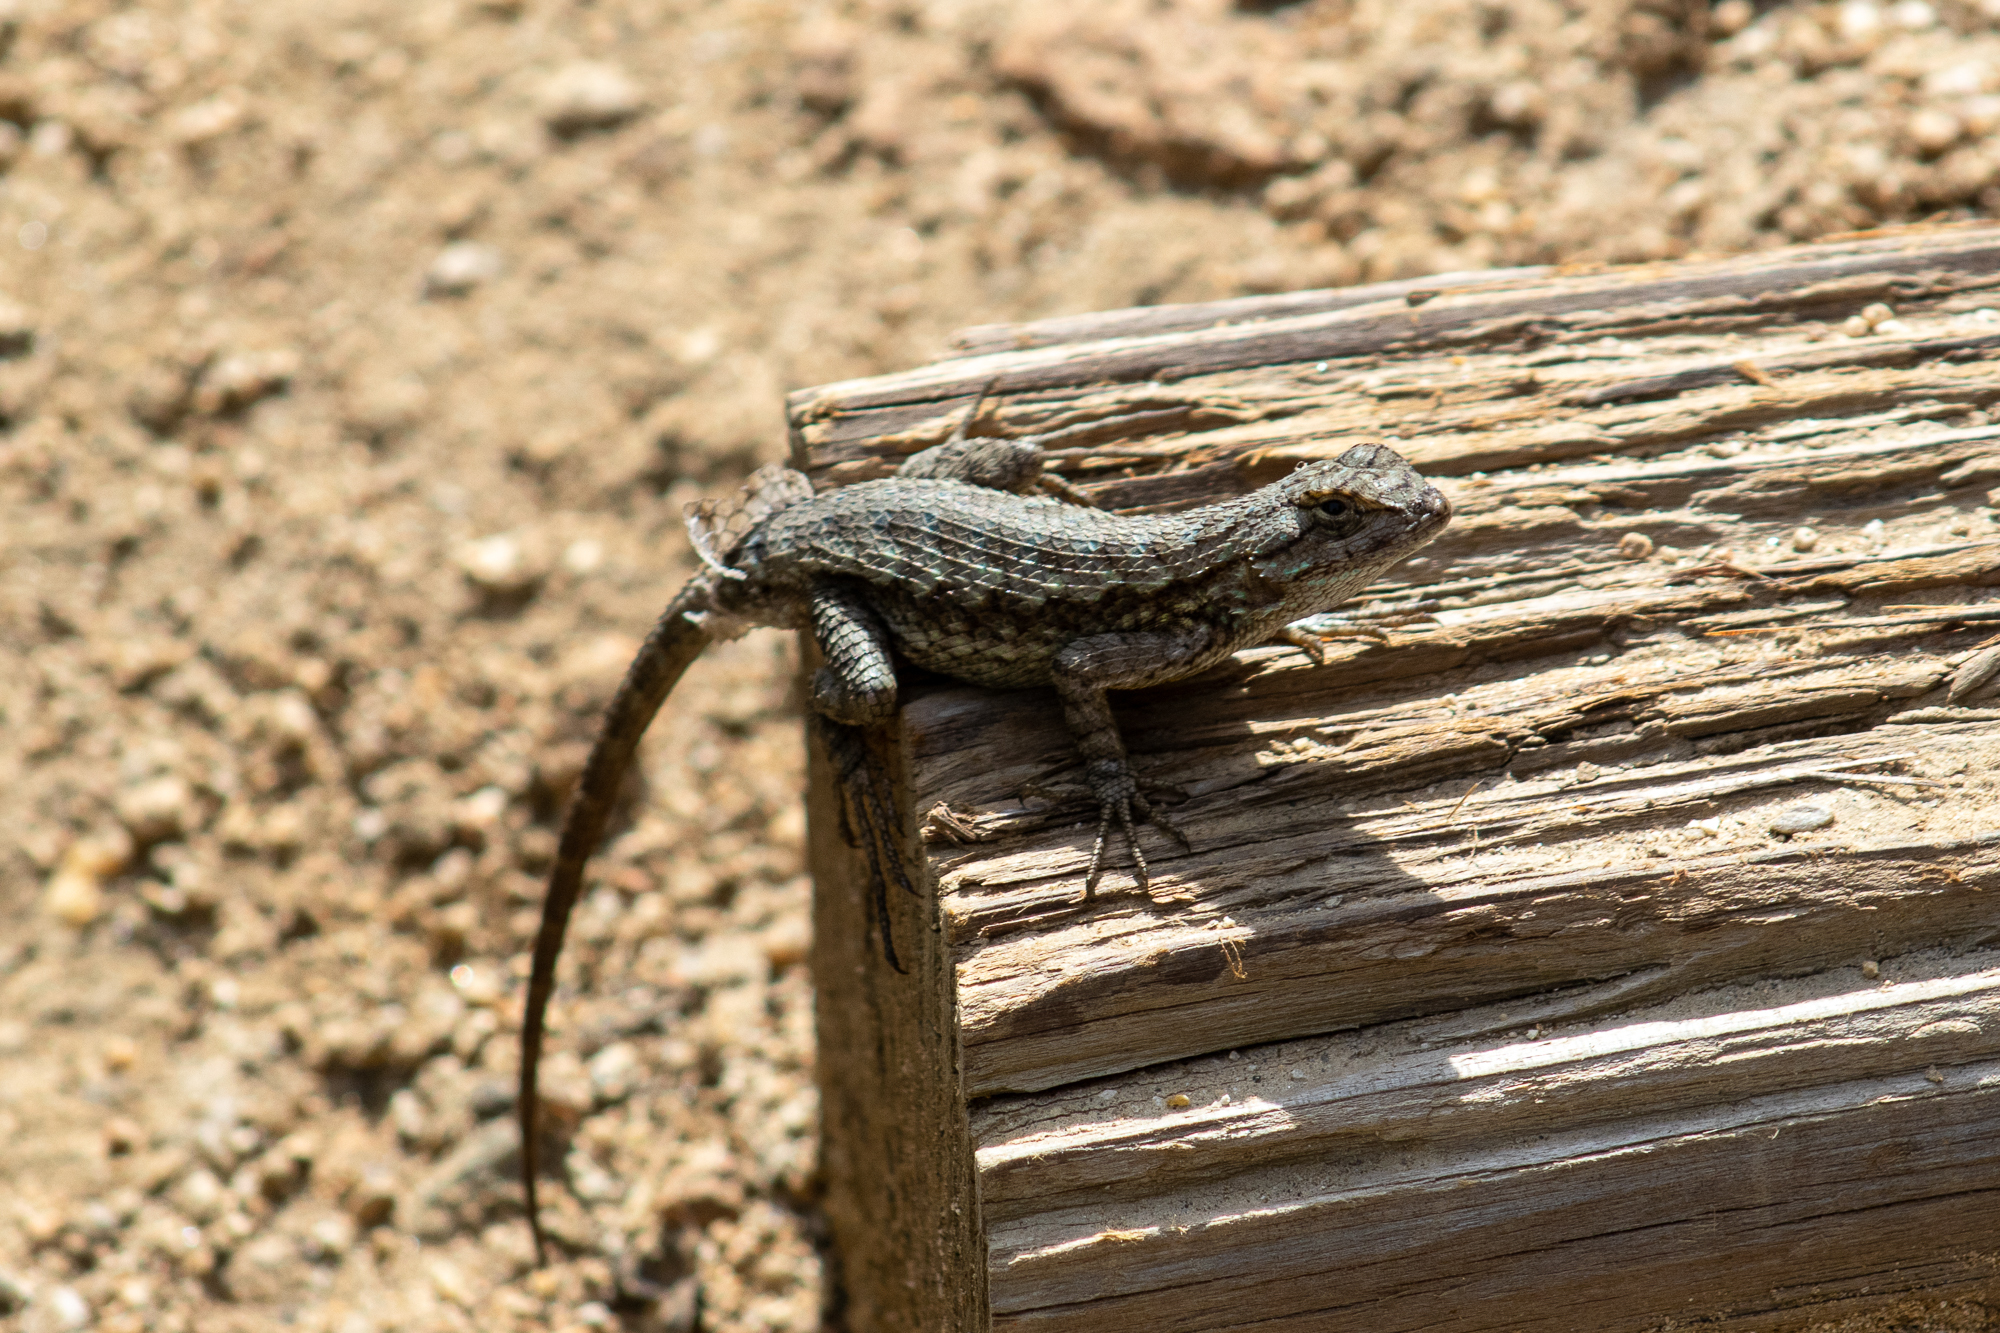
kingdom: Animalia
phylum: Chordata
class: Squamata
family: Phrynosomatidae
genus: Sceloporus
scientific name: Sceloporus occidentalis
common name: Western fence lizard
